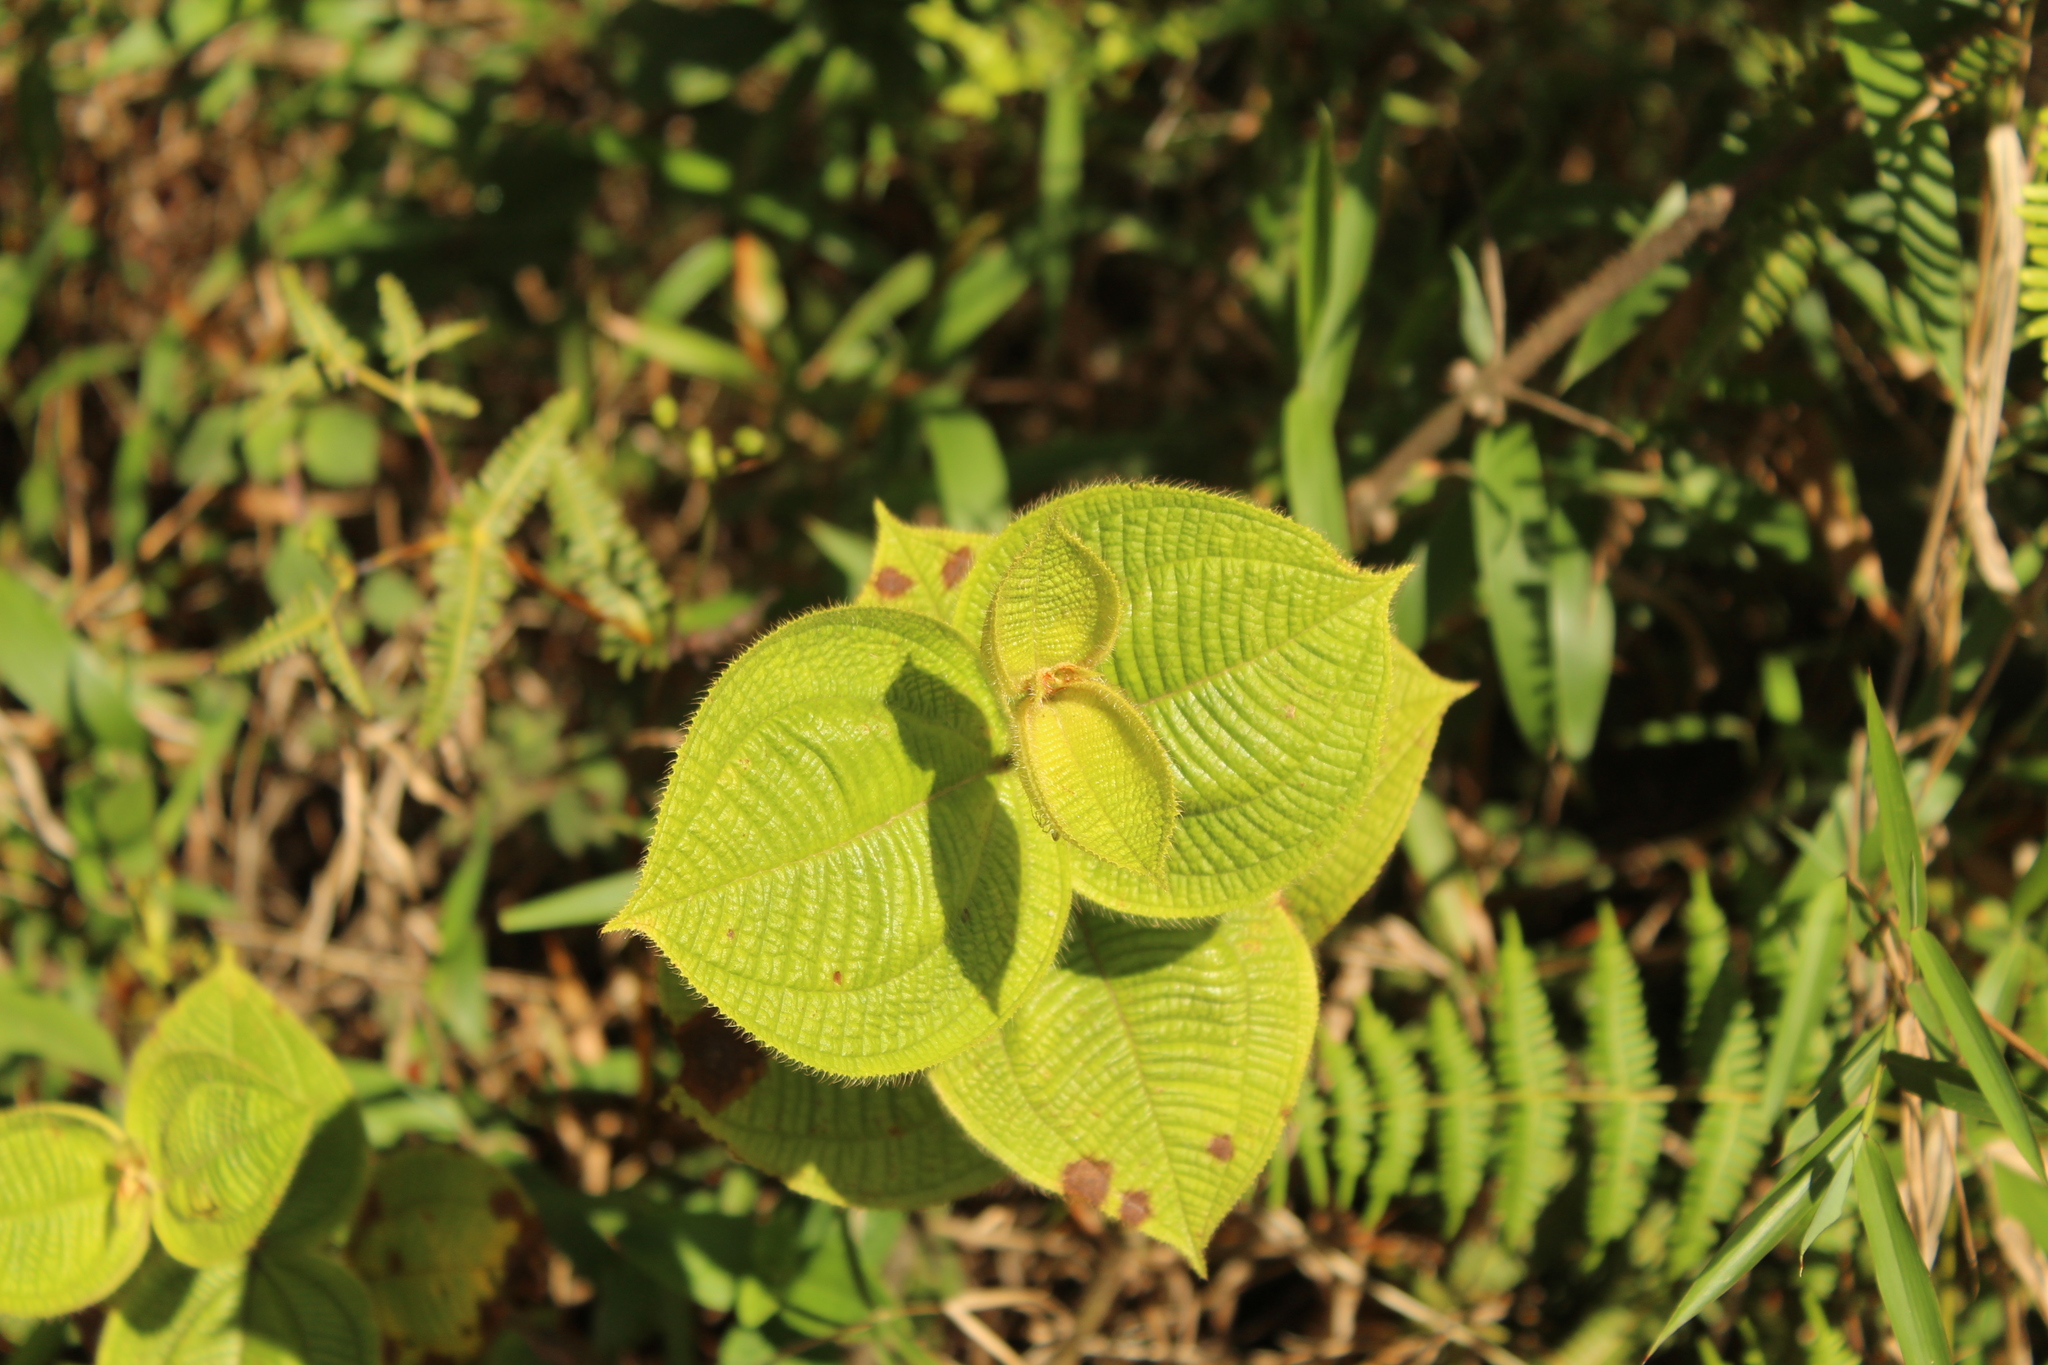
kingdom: Plantae
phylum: Tracheophyta
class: Magnoliopsida
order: Myrtales
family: Melastomataceae
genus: Miconia
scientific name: Miconia domociliata
